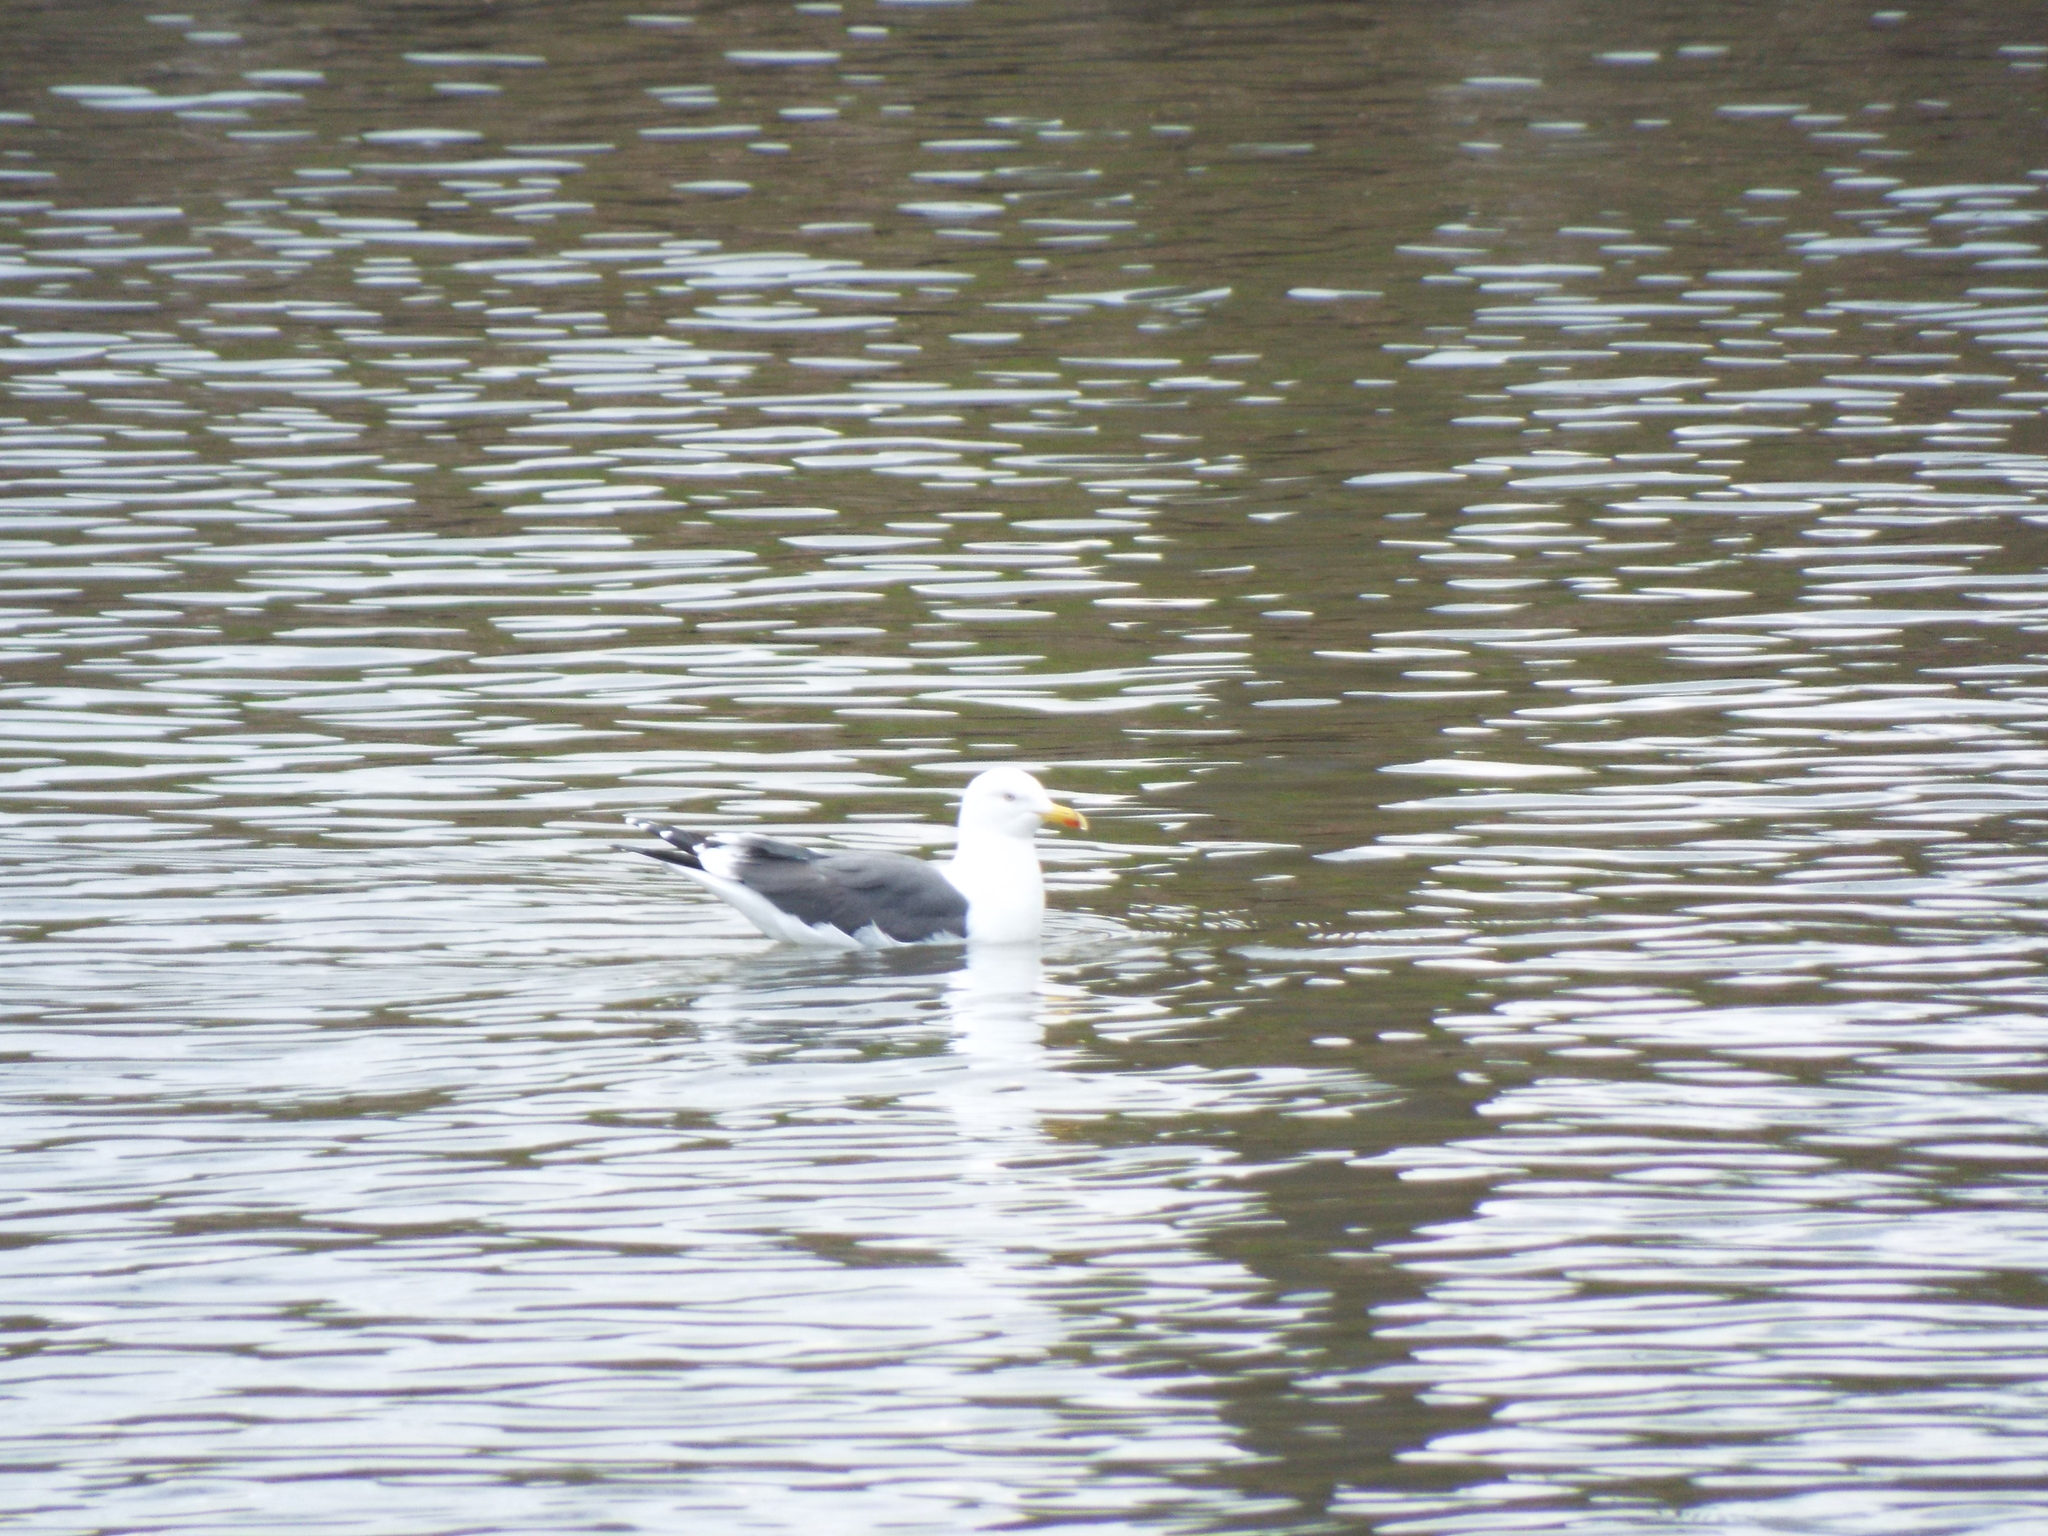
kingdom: Animalia
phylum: Chordata
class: Aves
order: Charadriiformes
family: Laridae
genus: Larus
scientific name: Larus fuscus
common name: Lesser black-backed gull
